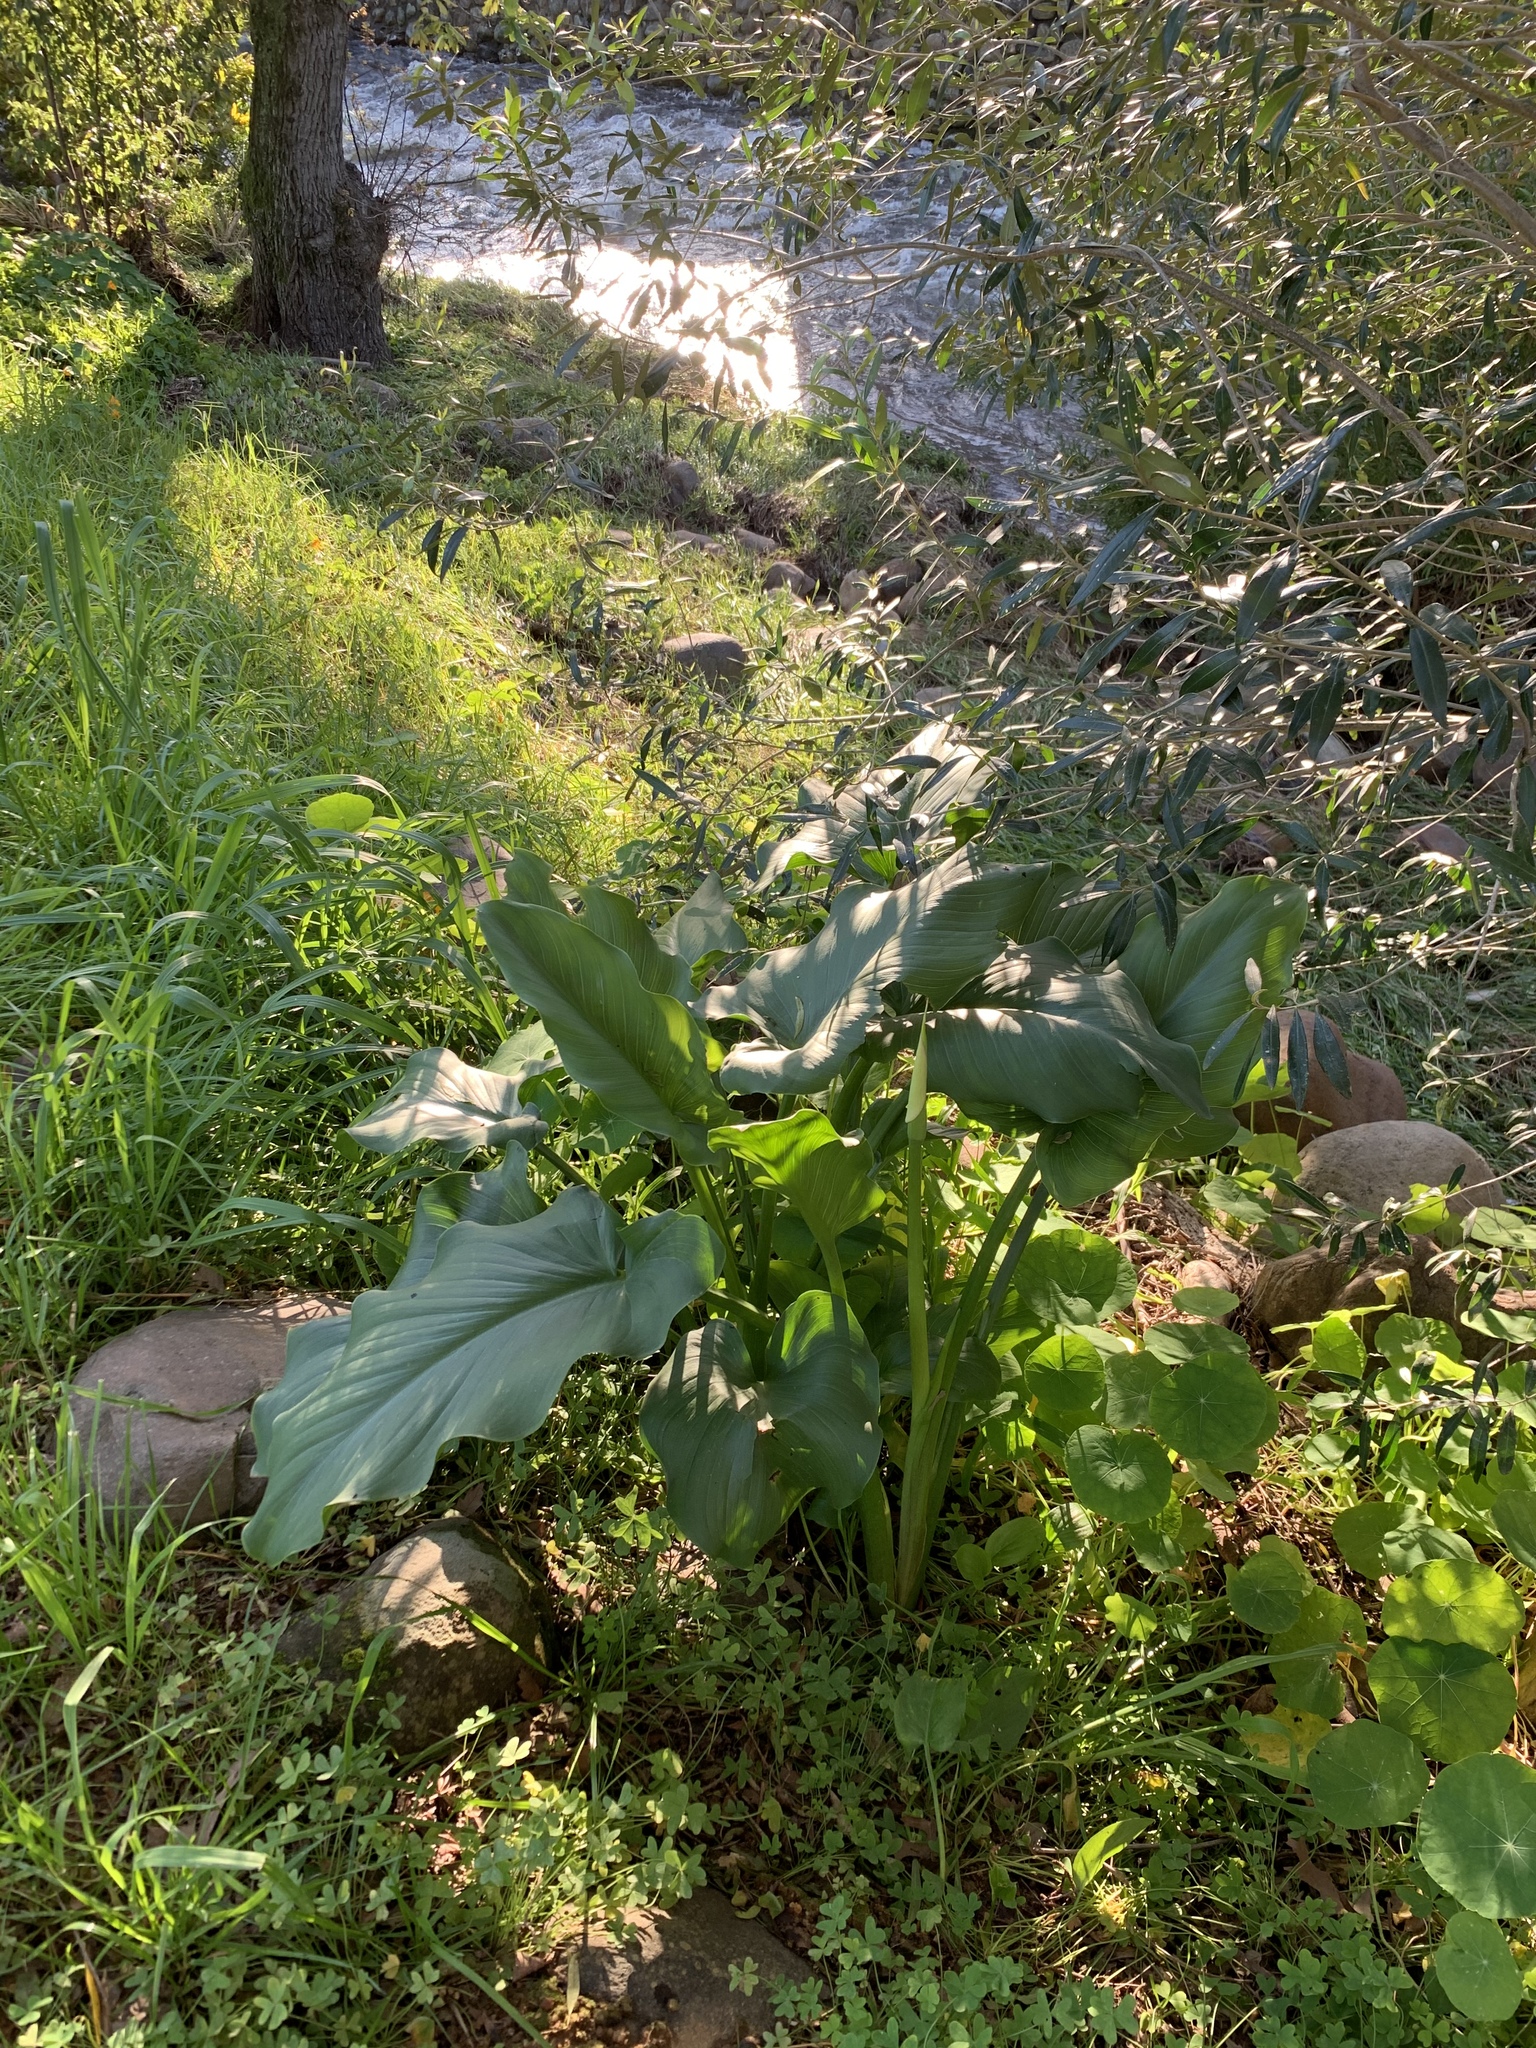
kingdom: Plantae
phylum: Tracheophyta
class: Liliopsida
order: Alismatales
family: Araceae
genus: Zantedeschia
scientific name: Zantedeschia aethiopica
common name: Altar-lily
